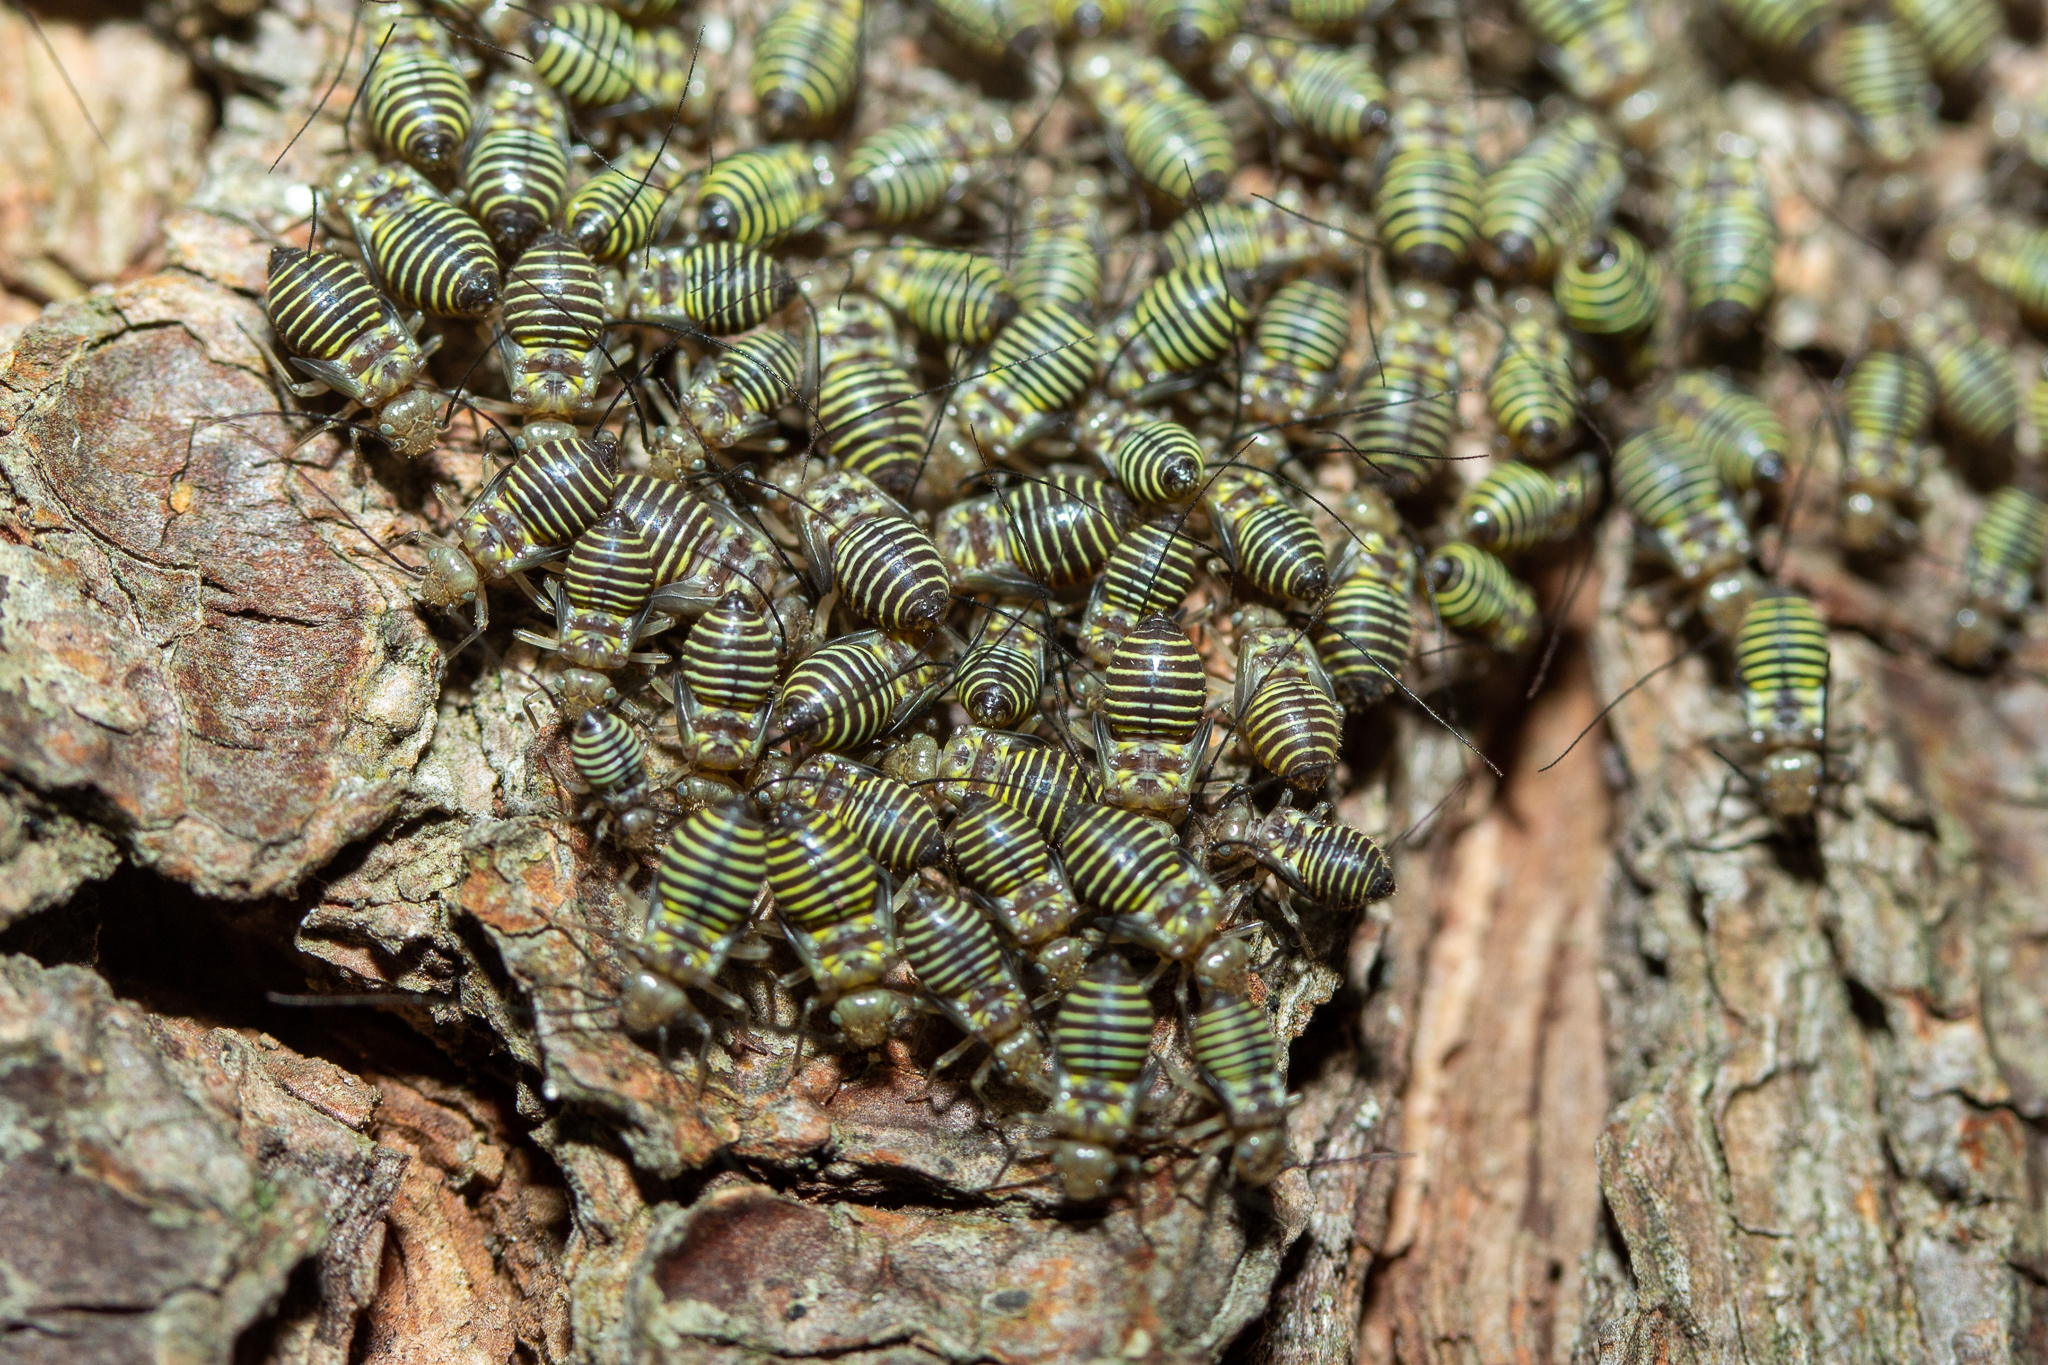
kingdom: Animalia
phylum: Arthropoda
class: Insecta
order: Psocodea
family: Psocidae
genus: Cerastipsocus
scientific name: Cerastipsocus venosus
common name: Tree cattle
